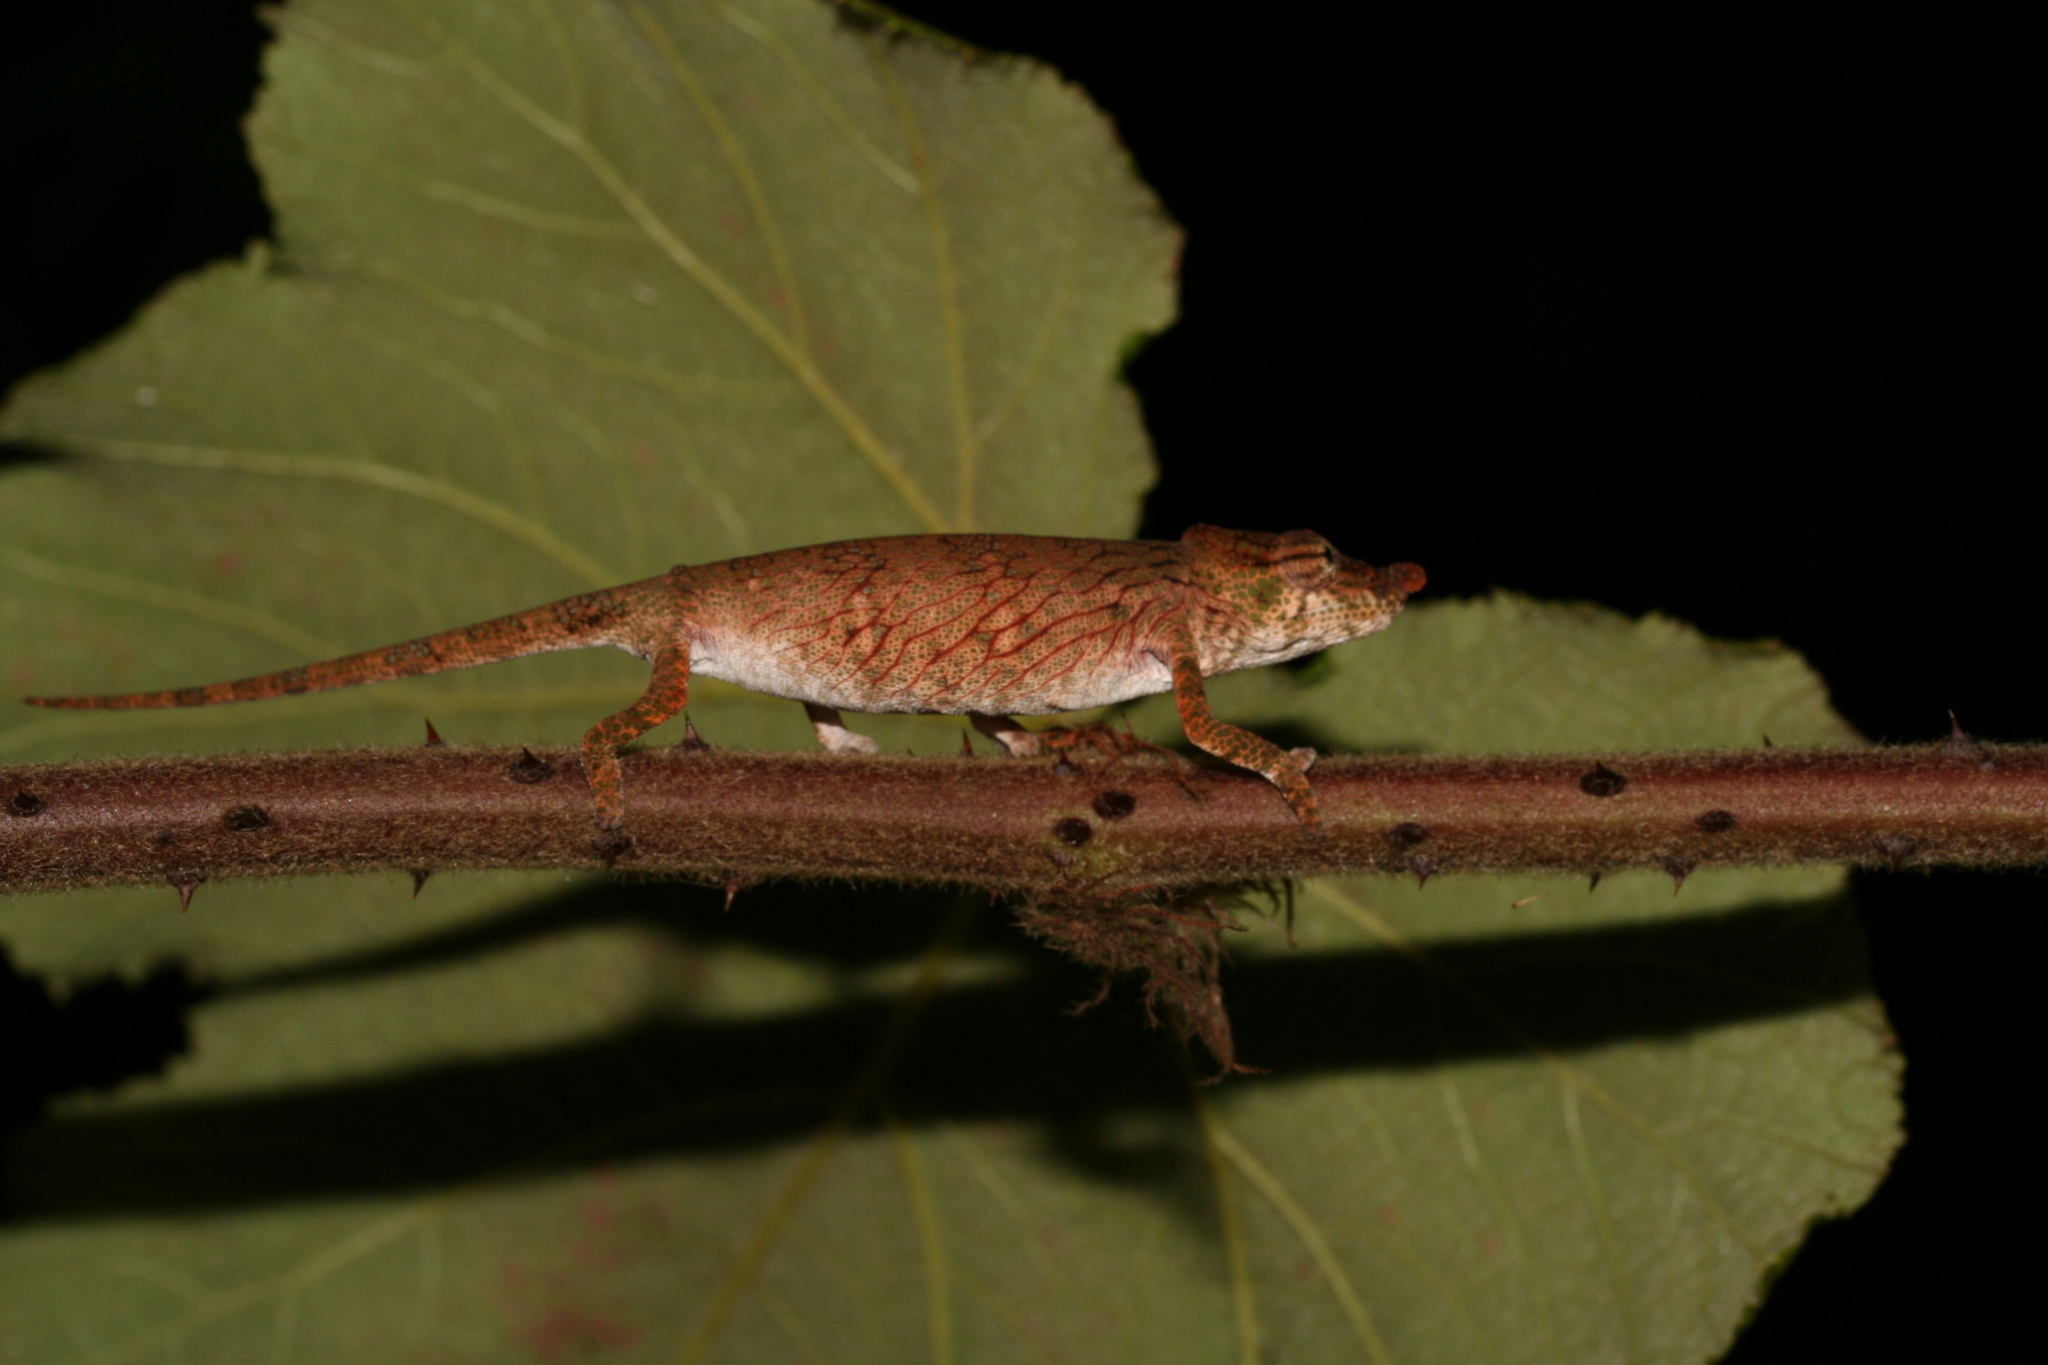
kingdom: Animalia
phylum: Chordata
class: Squamata
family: Chamaeleonidae
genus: Calumma
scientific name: Calumma emelinae
